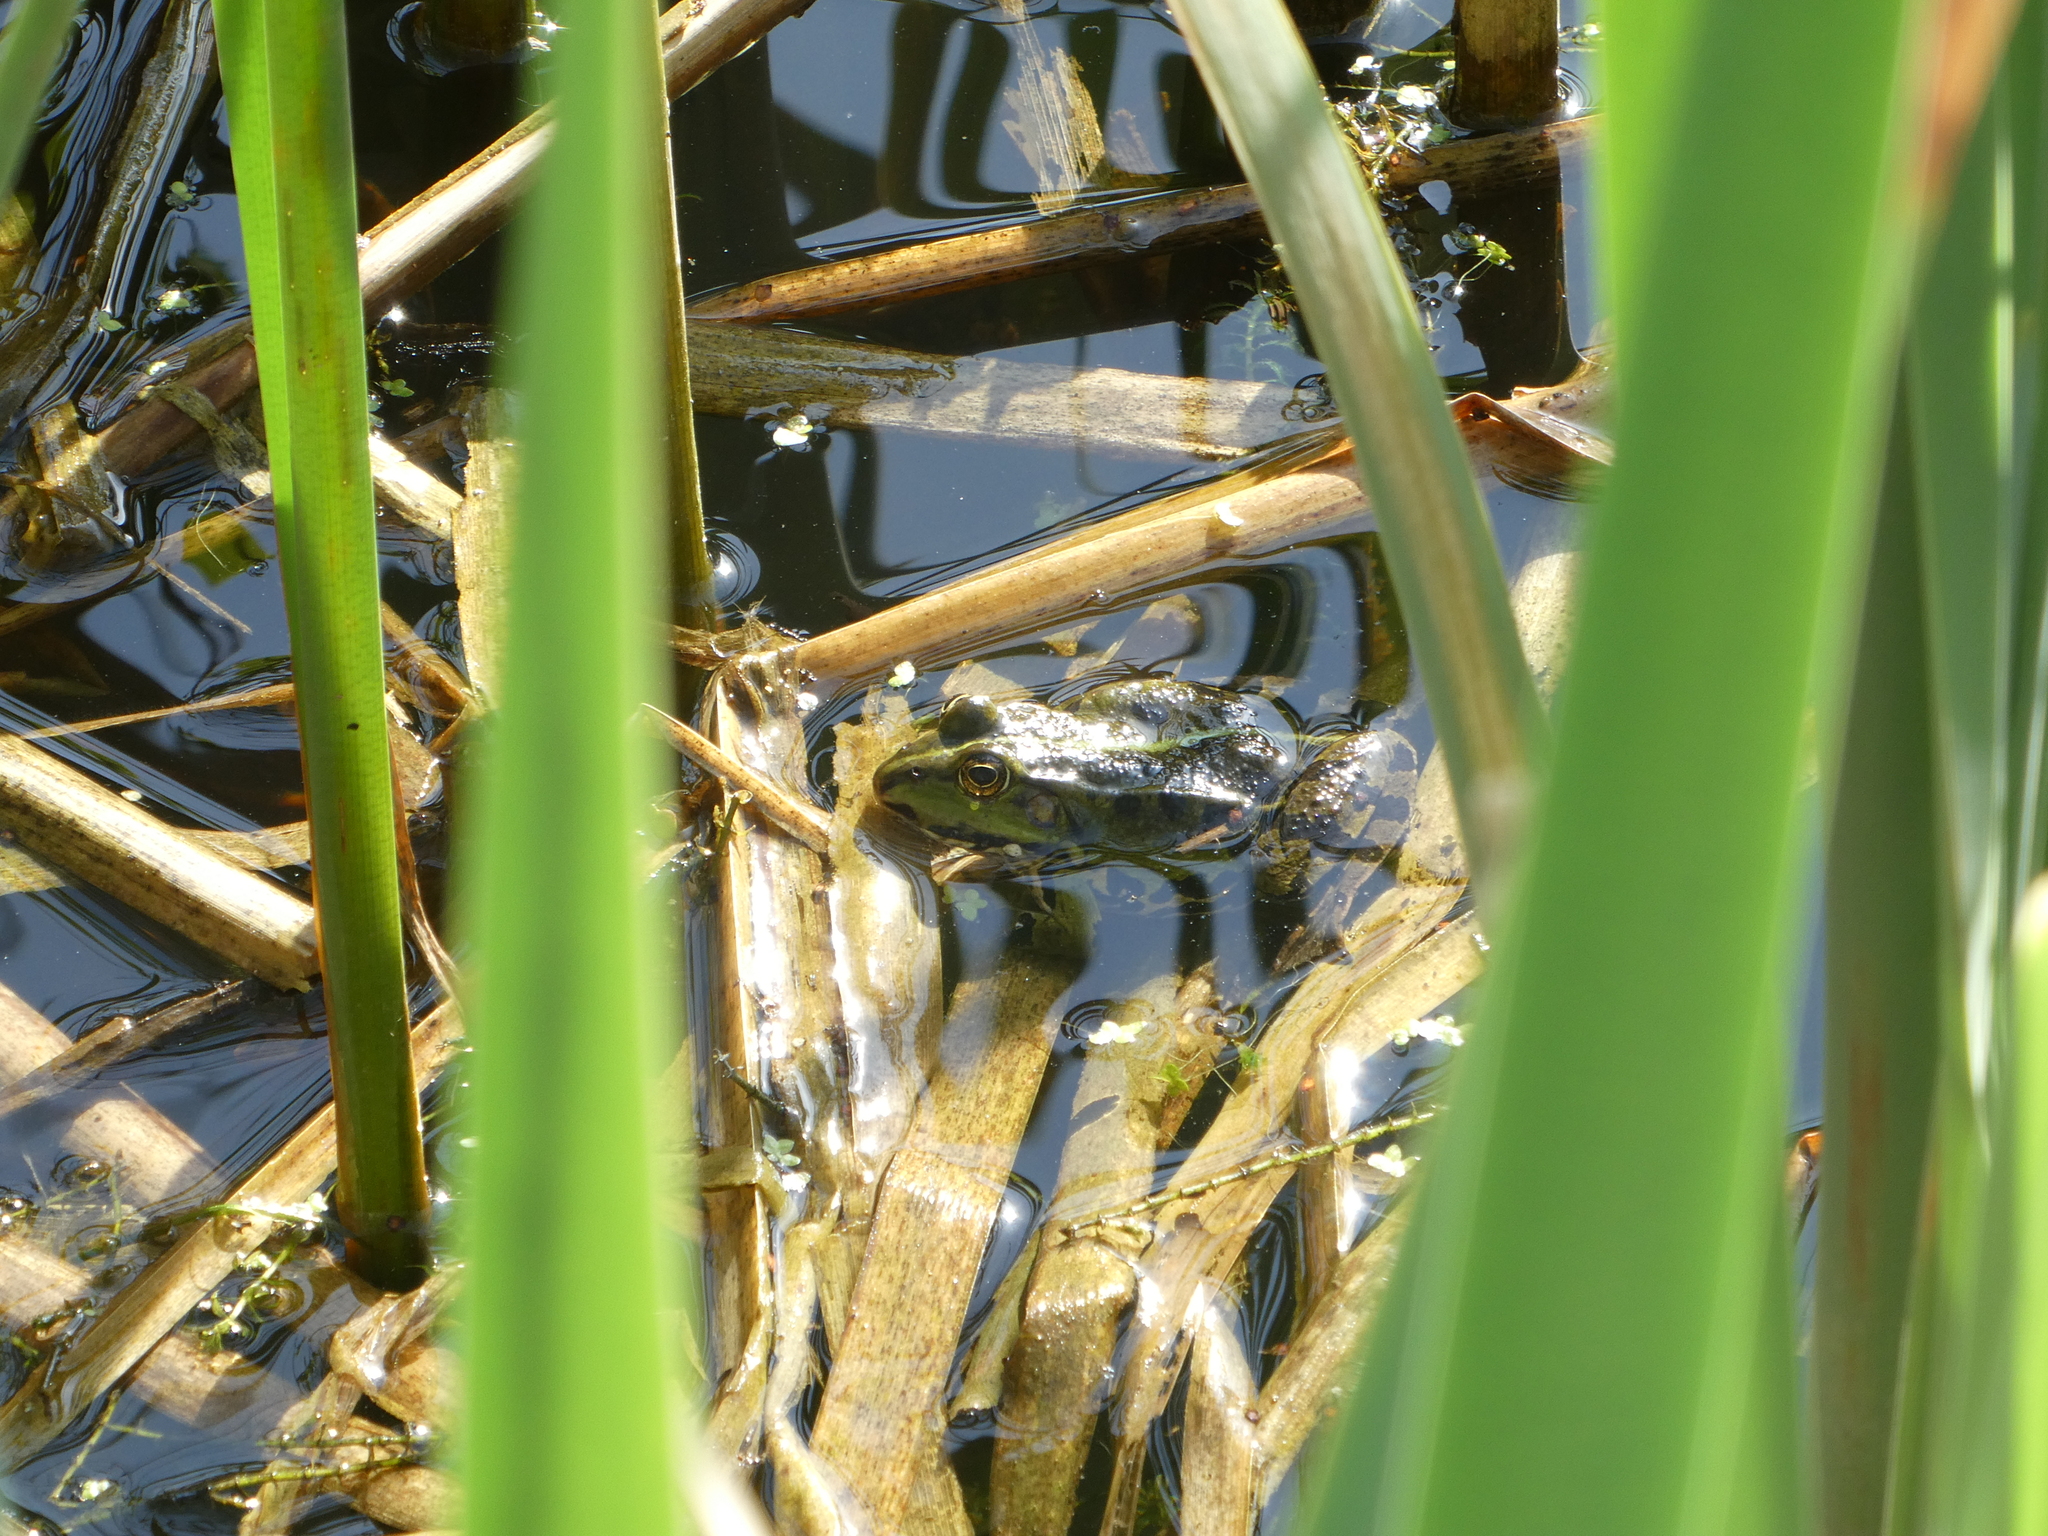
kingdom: Animalia
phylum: Chordata
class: Amphibia
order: Anura
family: Ranidae
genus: Pelophylax
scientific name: Pelophylax
